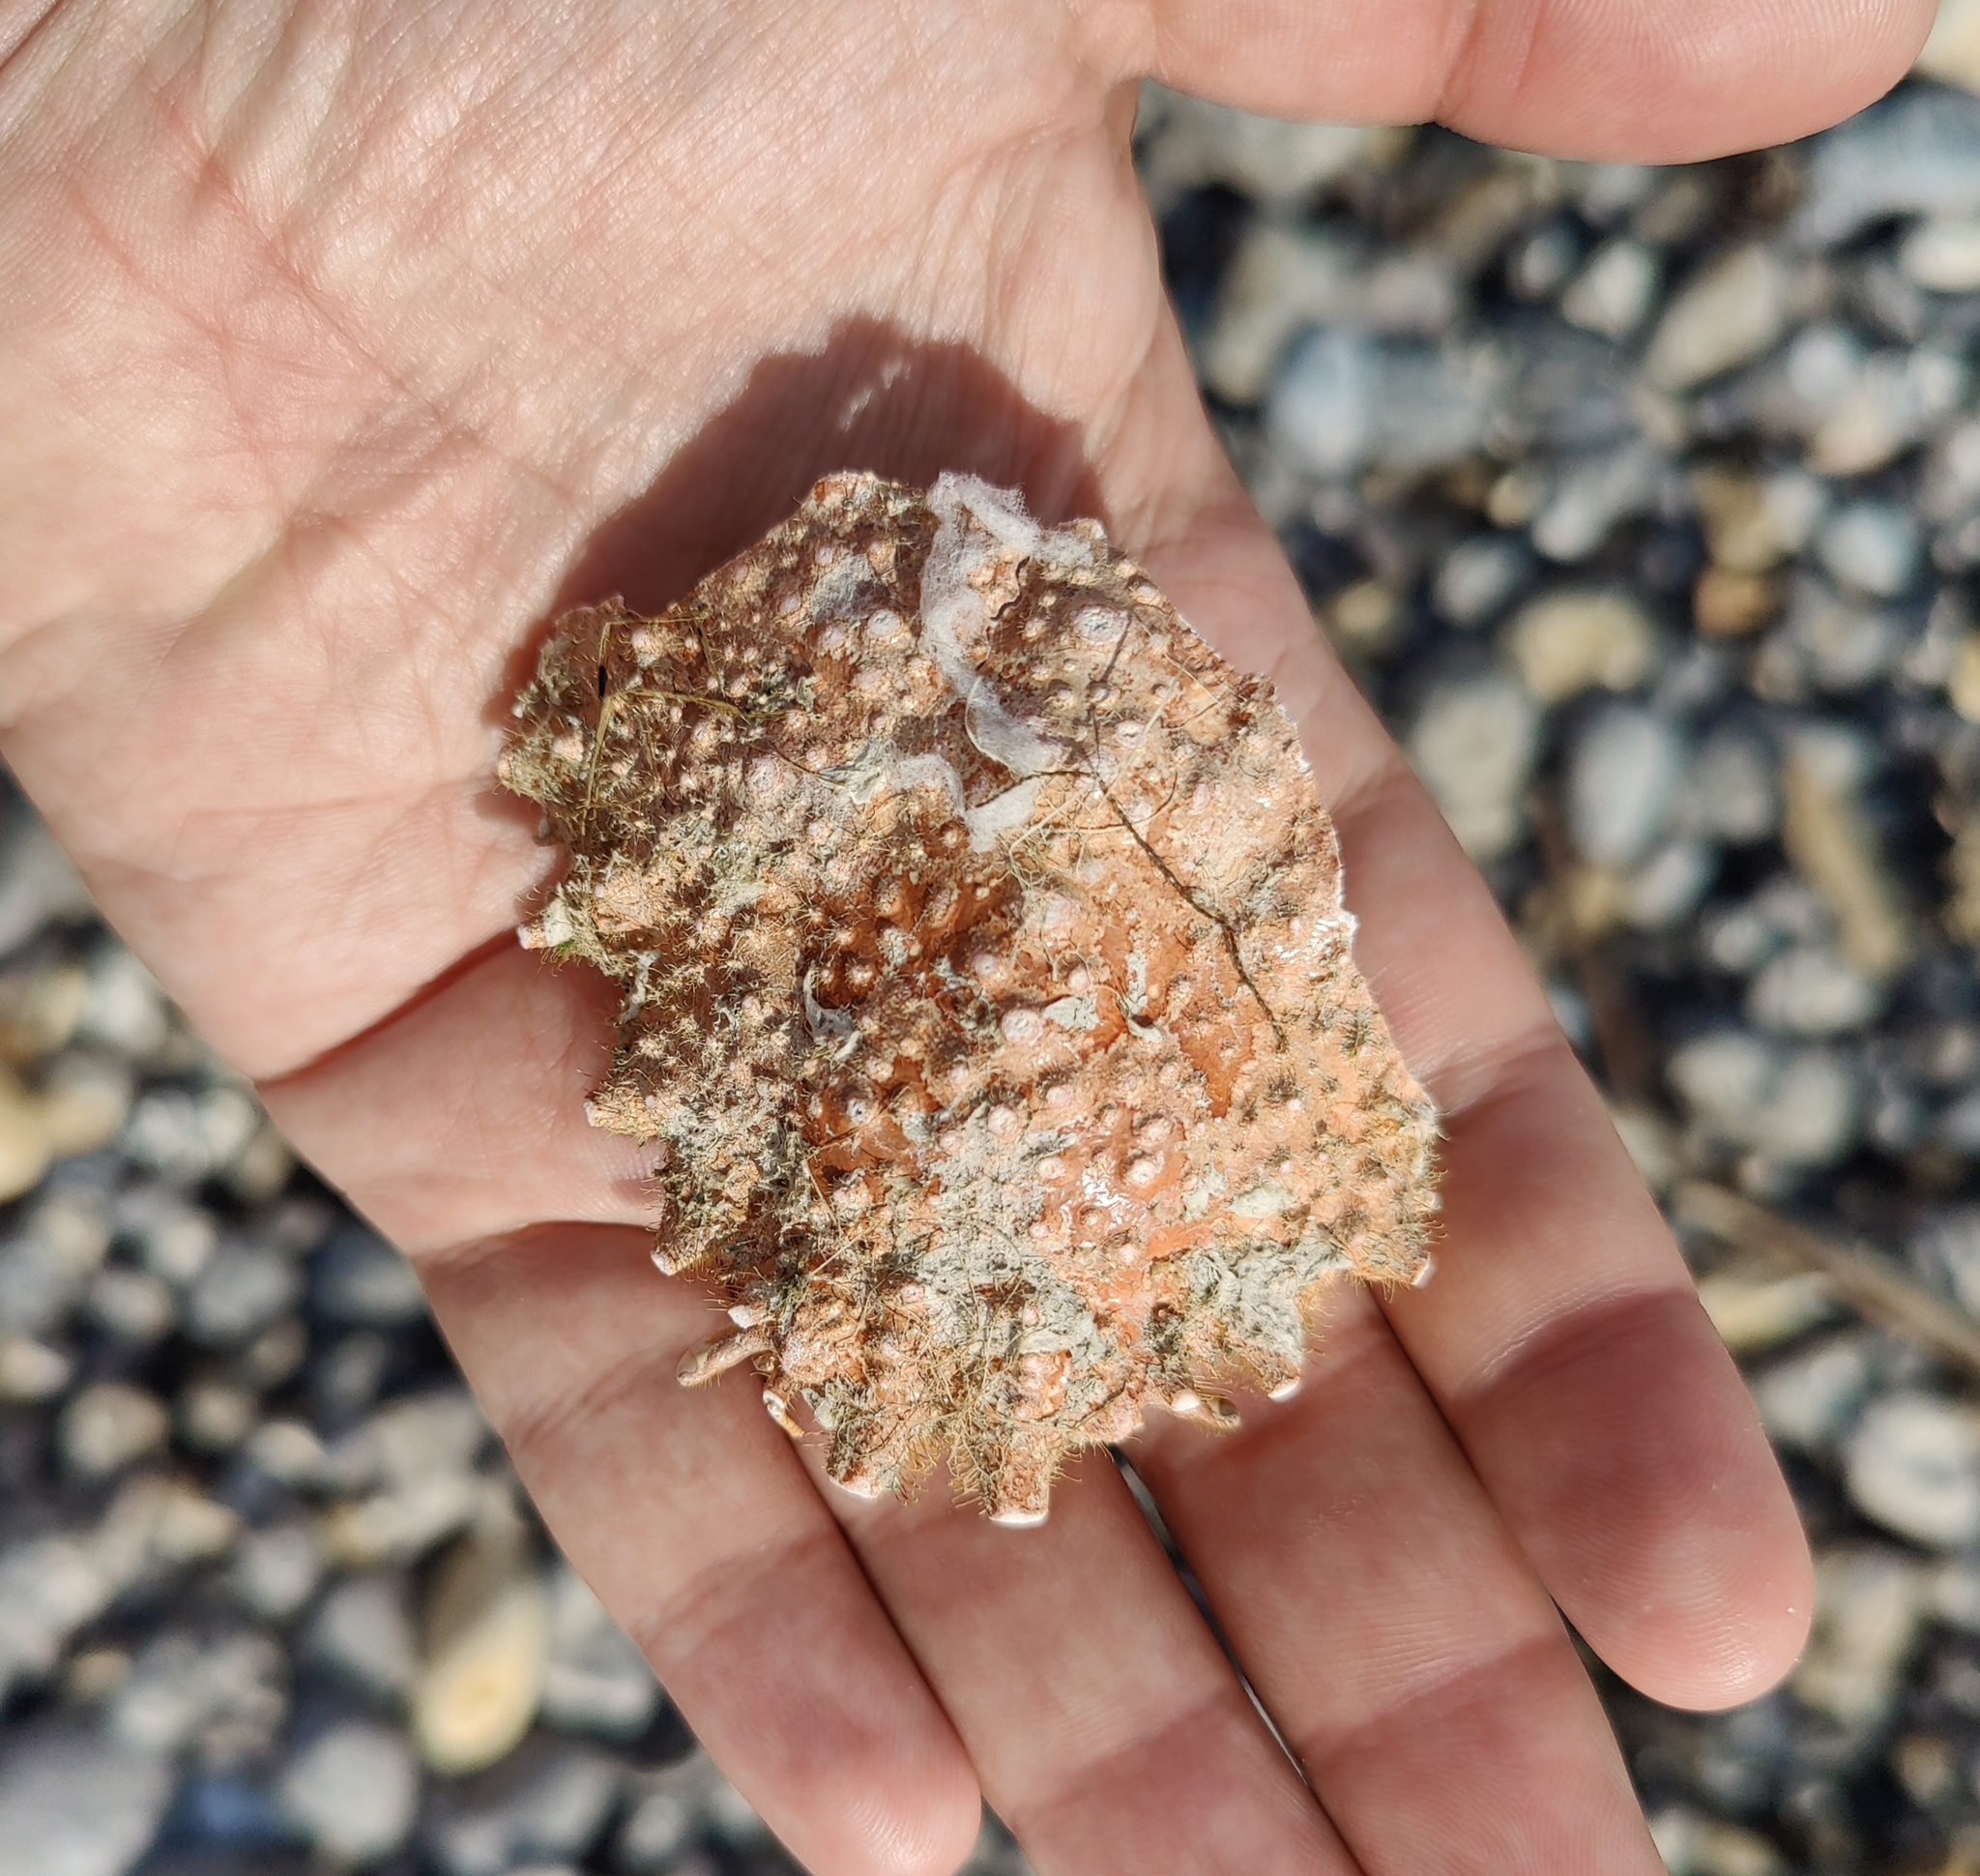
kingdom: Animalia
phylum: Arthropoda
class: Malacostraca
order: Decapoda
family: Majidae
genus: Maja
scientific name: Maja brachydactyla
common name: Common spider crab
